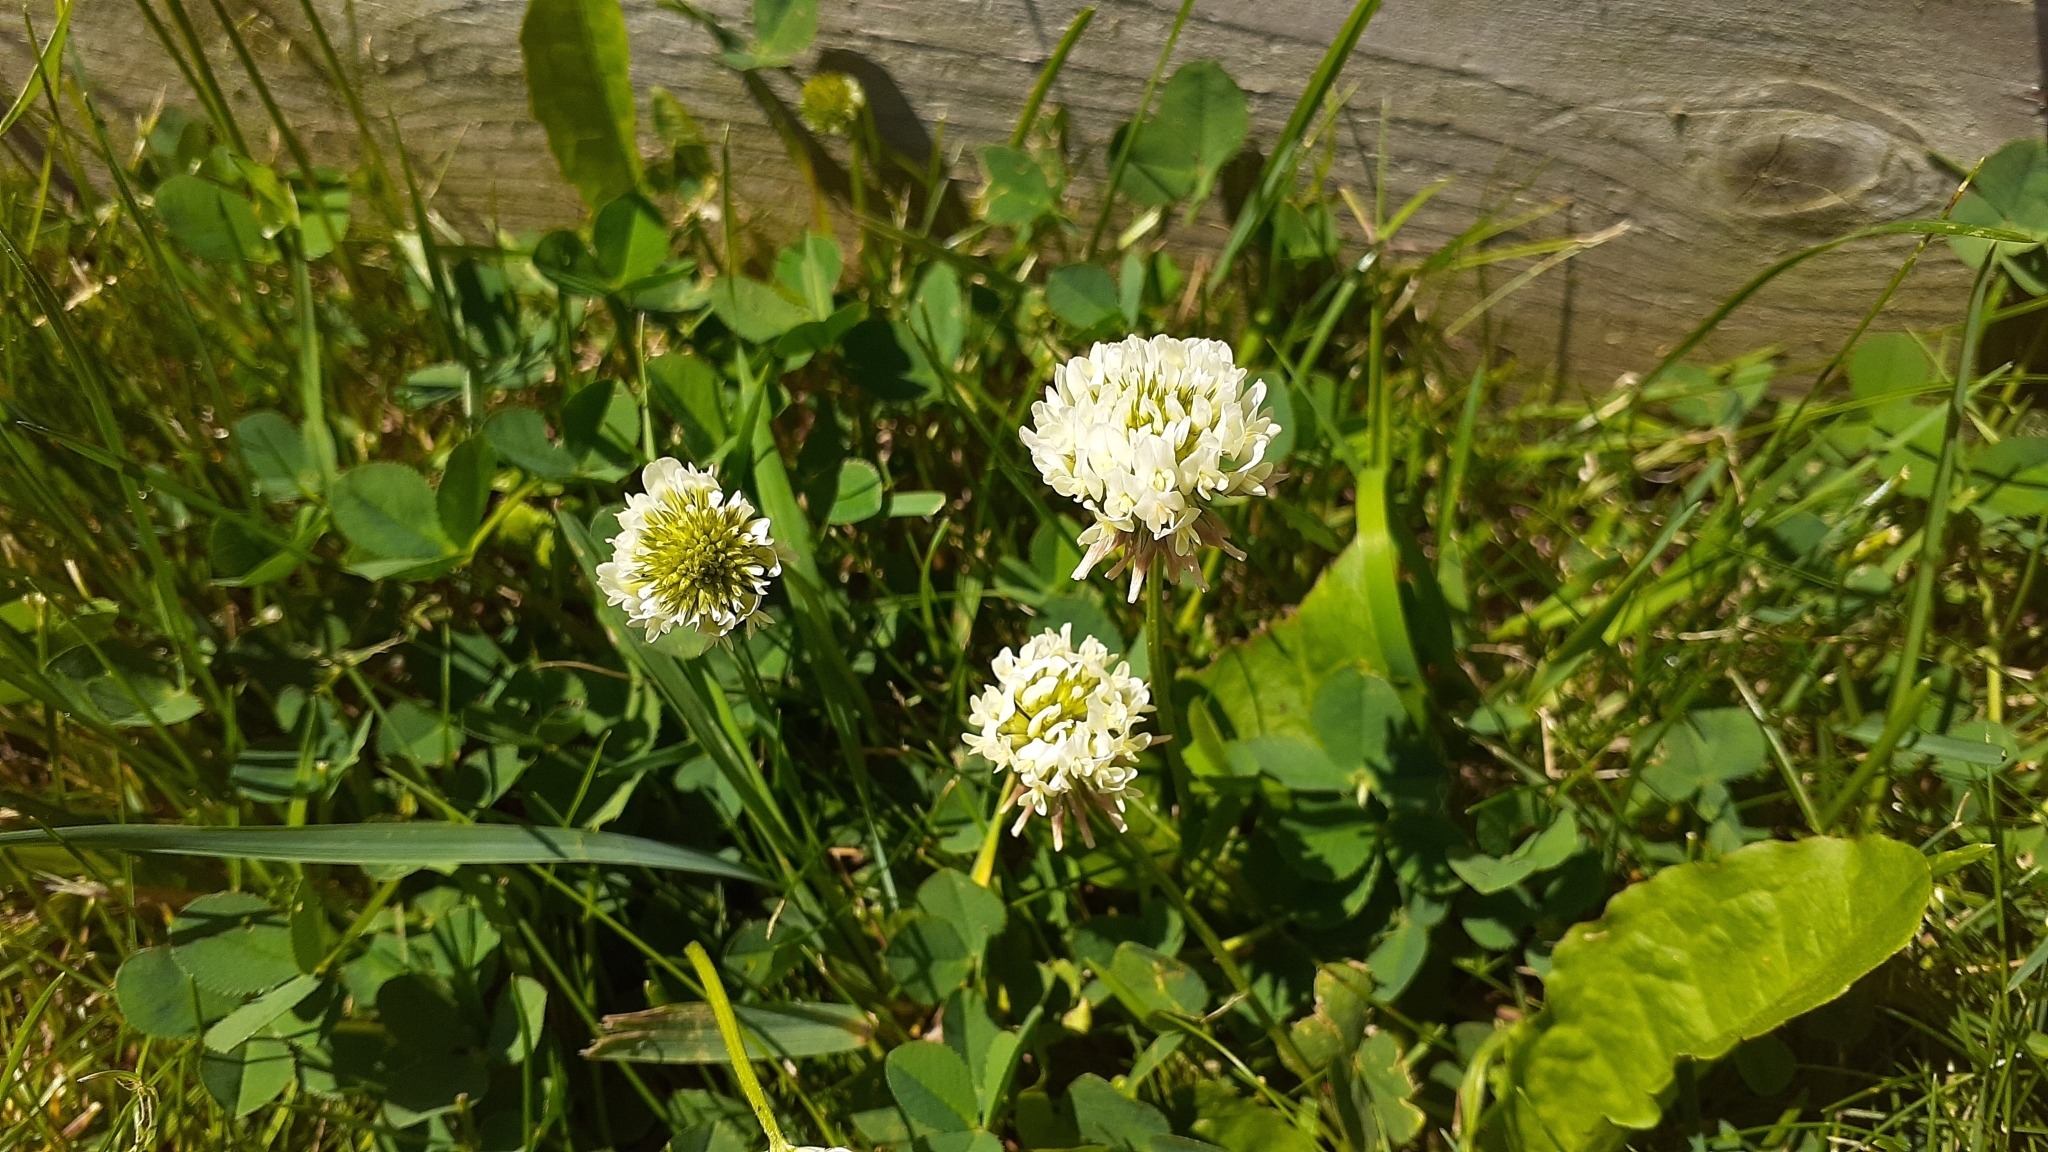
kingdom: Plantae
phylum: Tracheophyta
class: Magnoliopsida
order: Fabales
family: Fabaceae
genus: Trifolium
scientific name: Trifolium repens
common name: White clover
